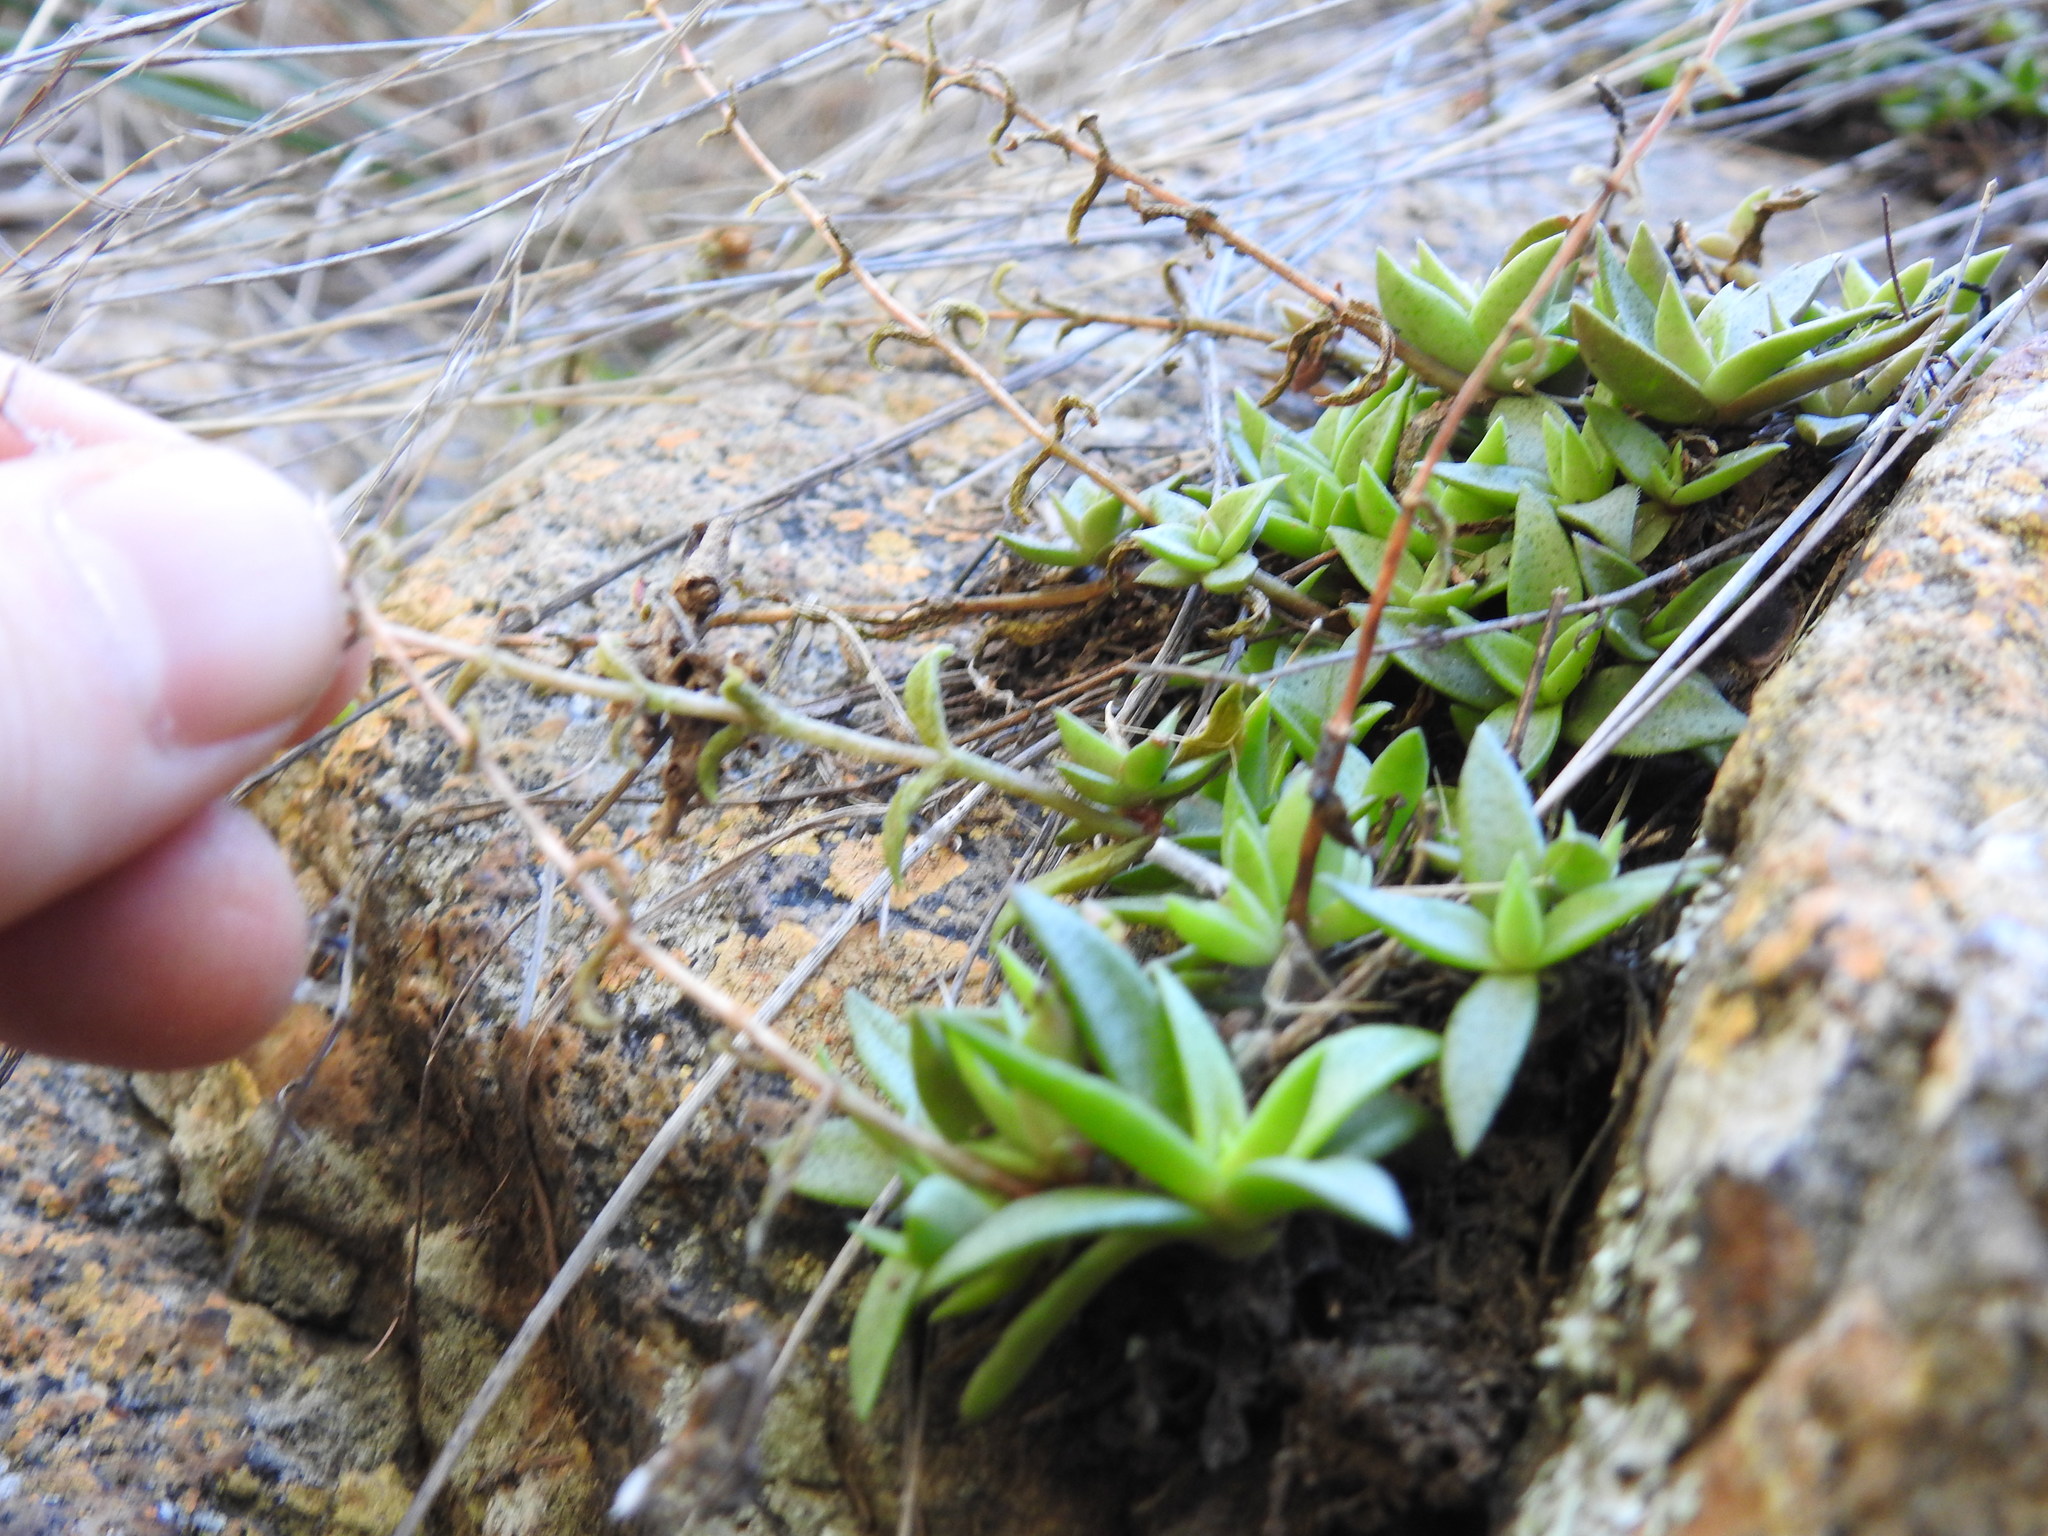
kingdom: Plantae
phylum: Tracheophyta
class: Magnoliopsida
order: Saxifragales
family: Crassulaceae
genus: Crassula
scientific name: Crassula setulosa
